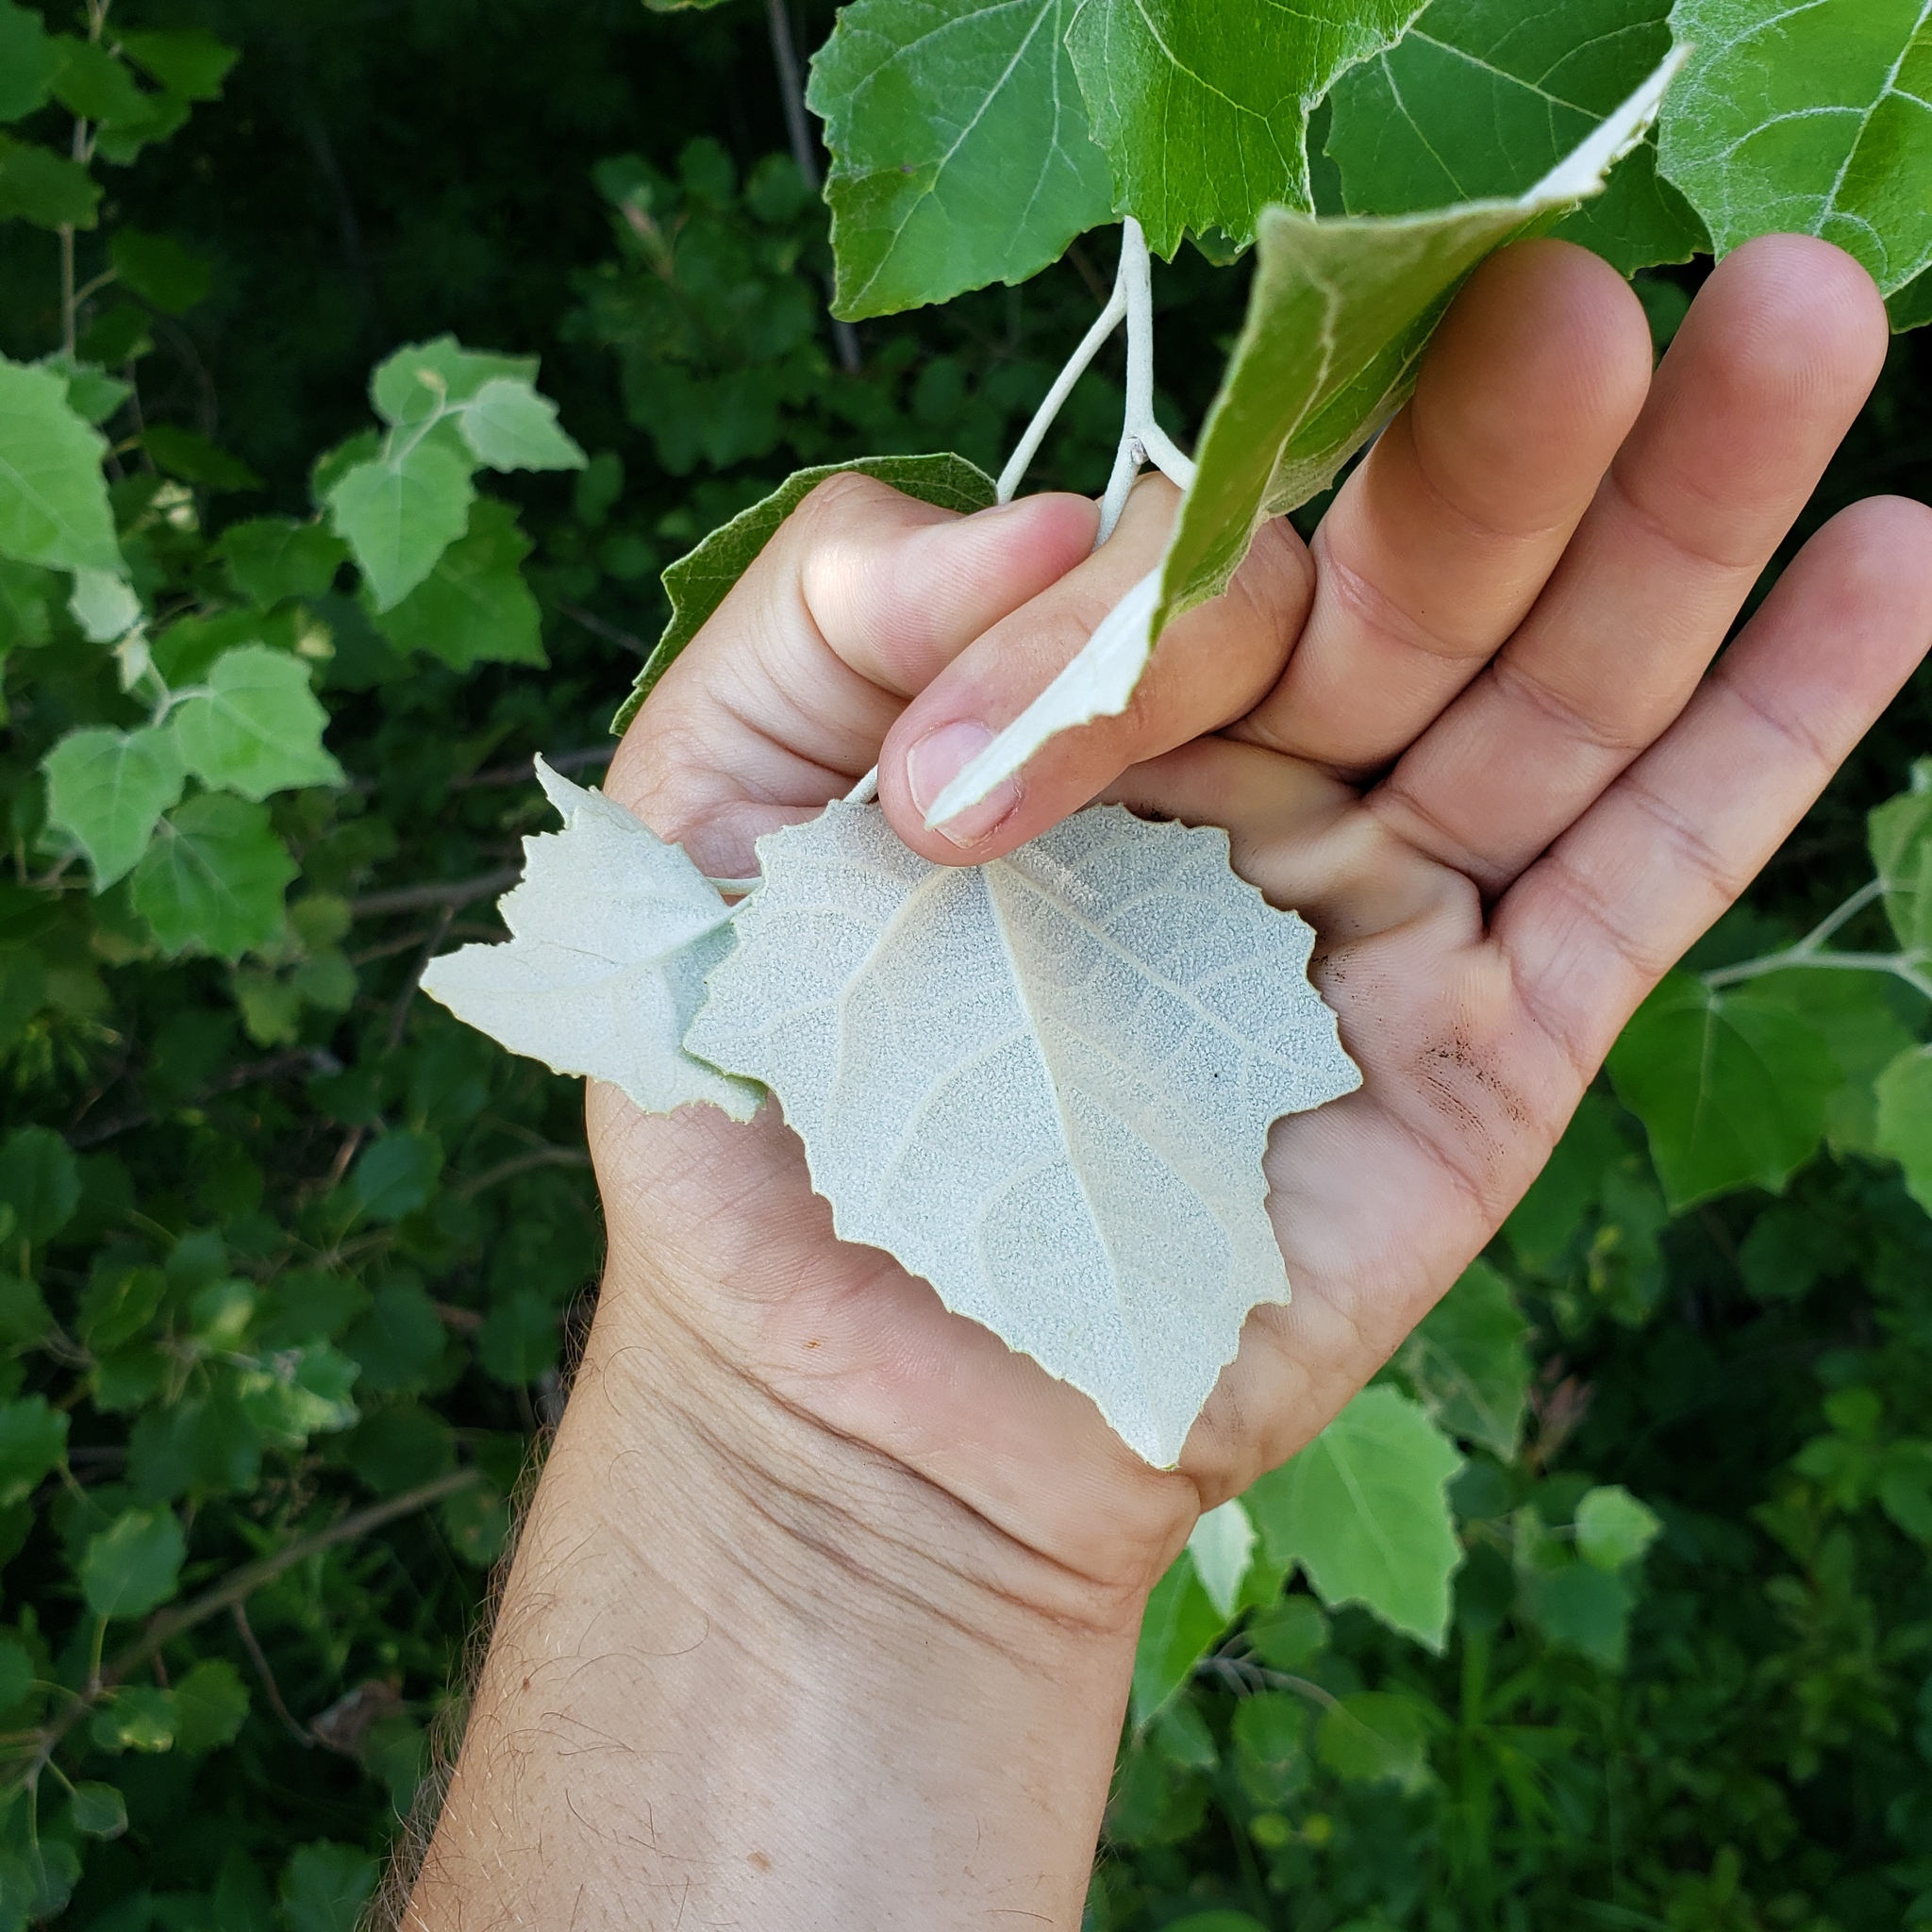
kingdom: Plantae
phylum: Tracheophyta
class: Magnoliopsida
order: Malpighiales
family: Salicaceae
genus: Populus
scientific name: Populus alba
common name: White poplar
